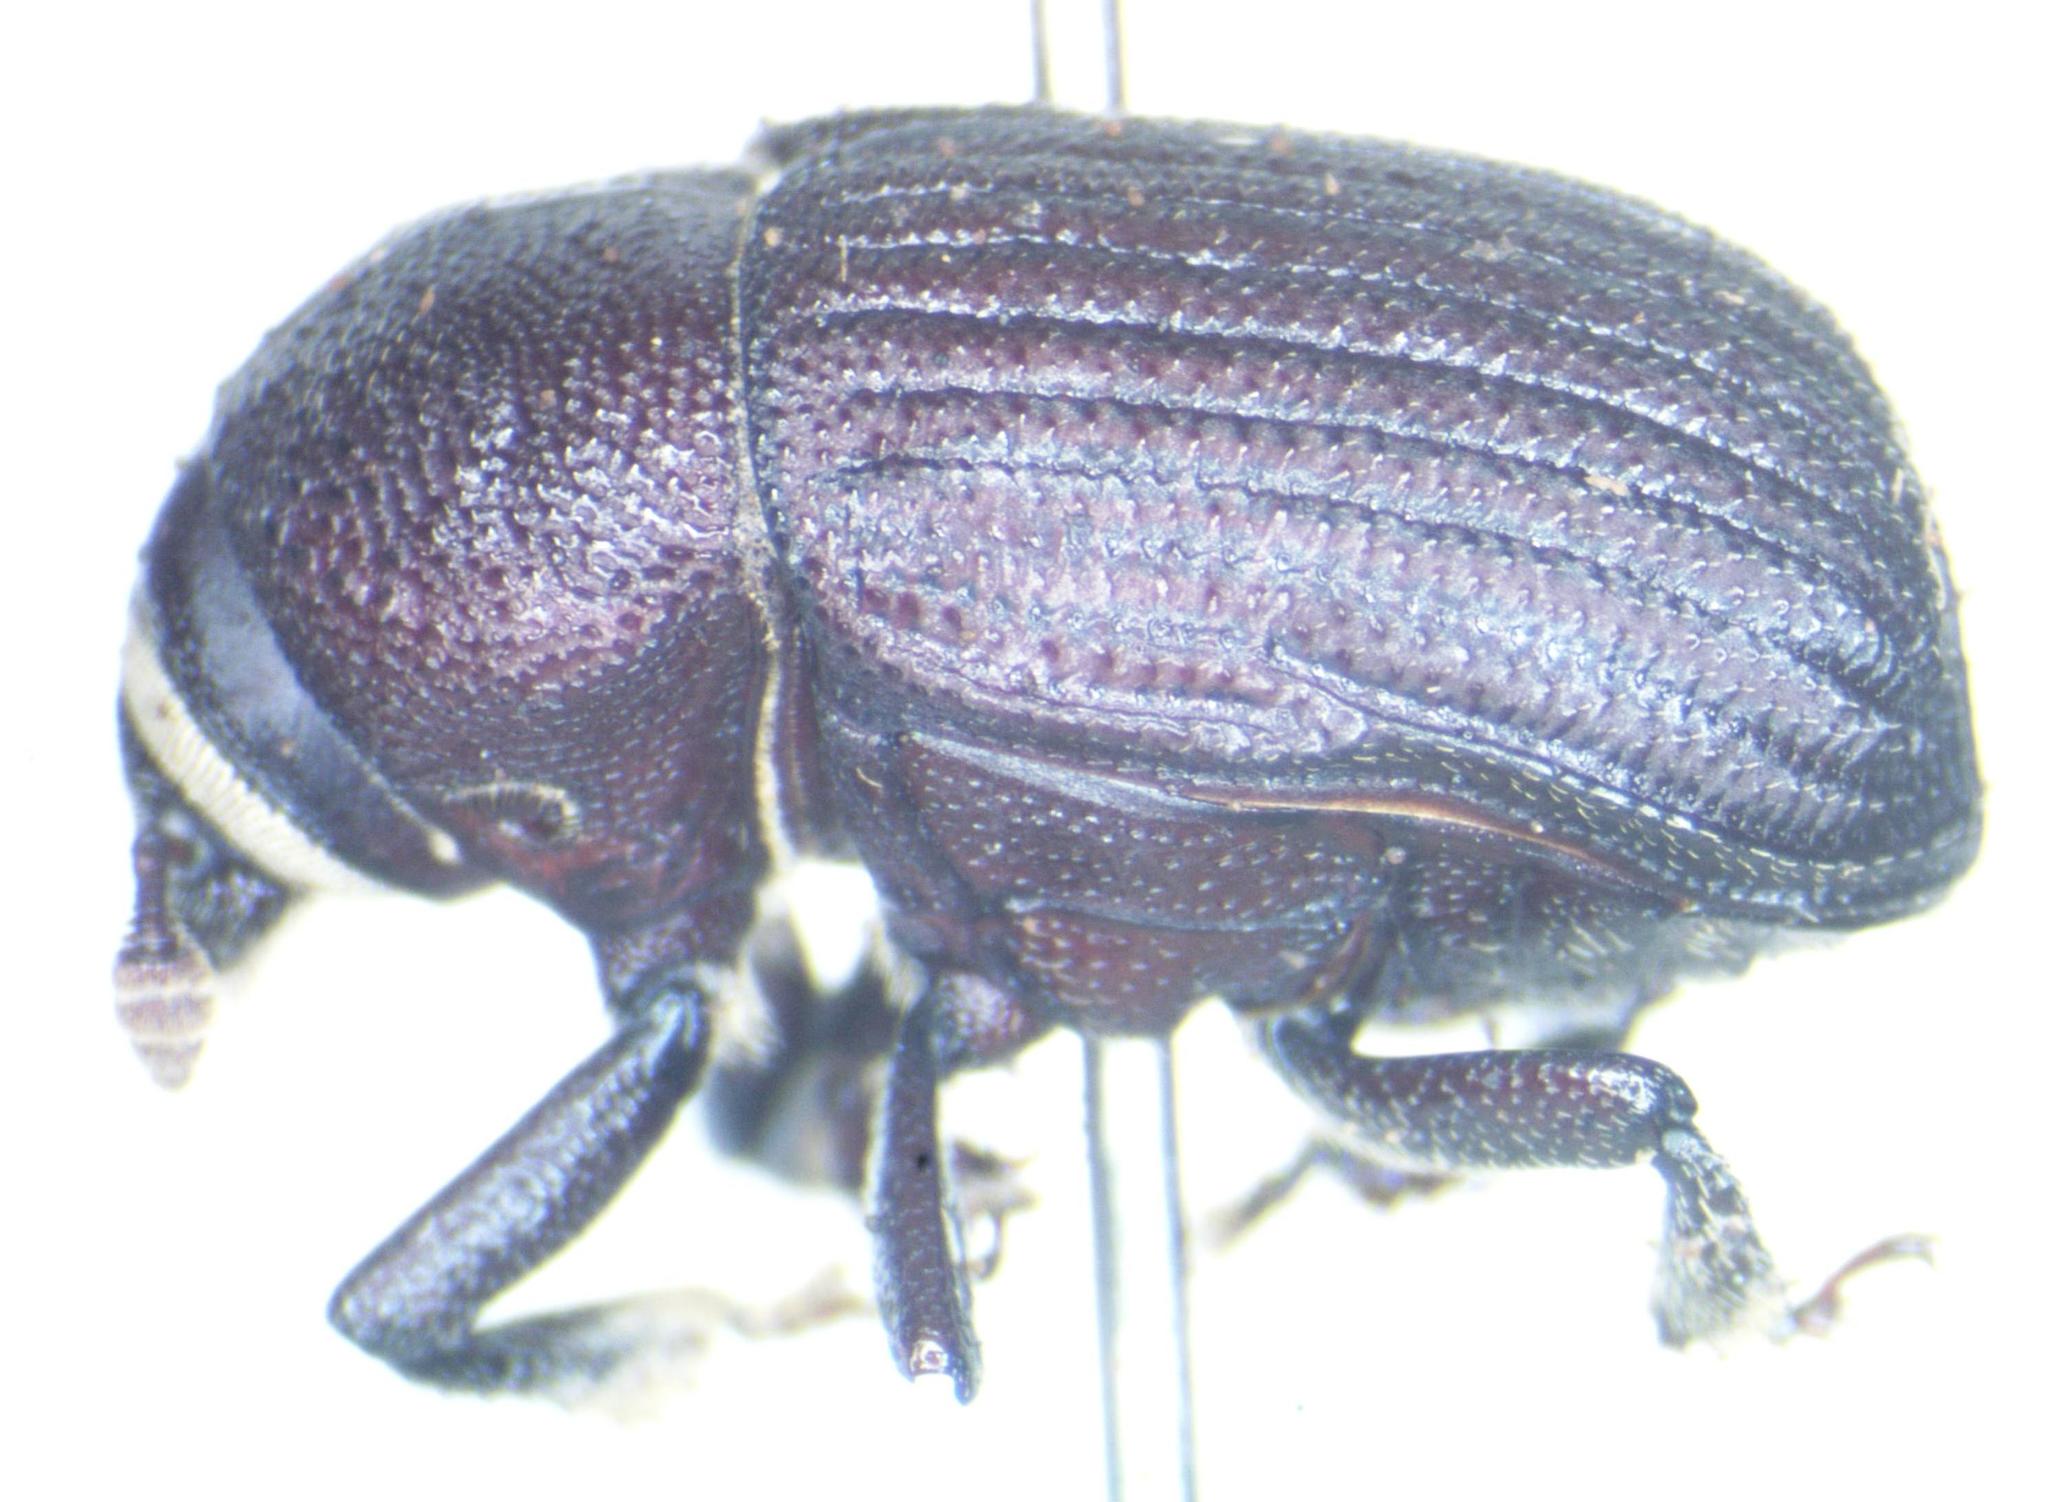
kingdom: Animalia
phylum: Arthropoda
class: Insecta
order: Coleoptera
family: Curculionidae
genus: Phloeoborus
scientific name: Phloeoborus scaber
